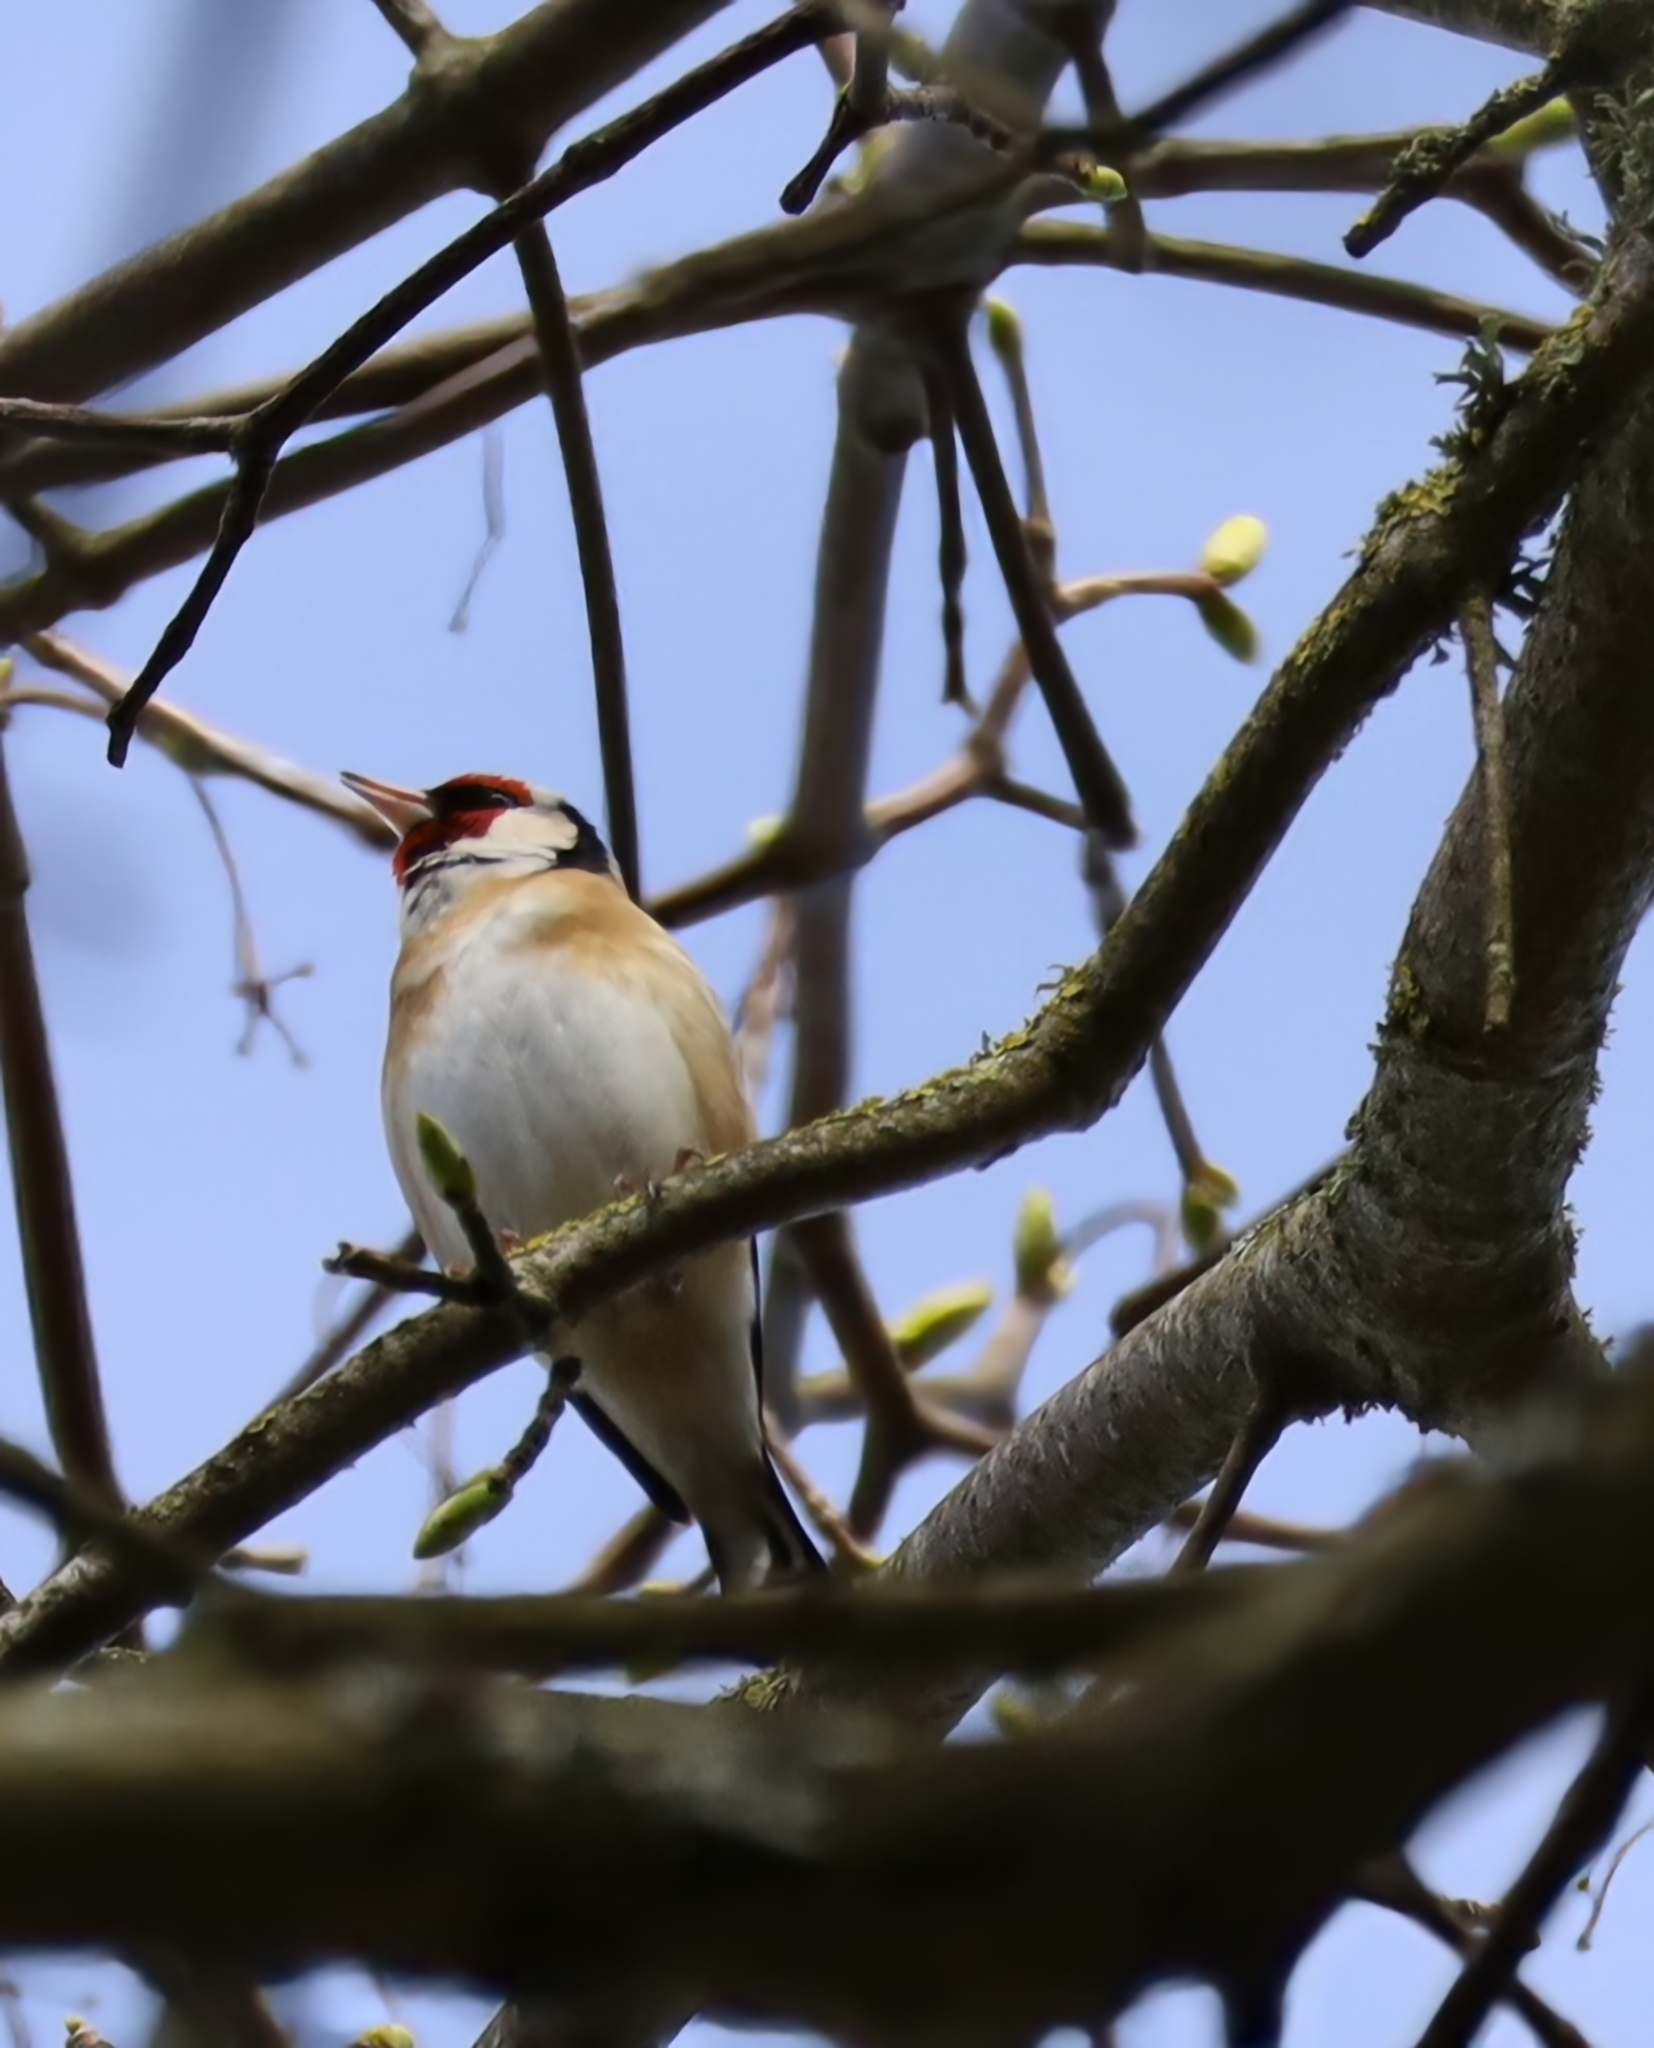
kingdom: Animalia
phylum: Chordata
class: Aves
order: Passeriformes
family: Fringillidae
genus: Carduelis
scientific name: Carduelis carduelis
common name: European goldfinch
